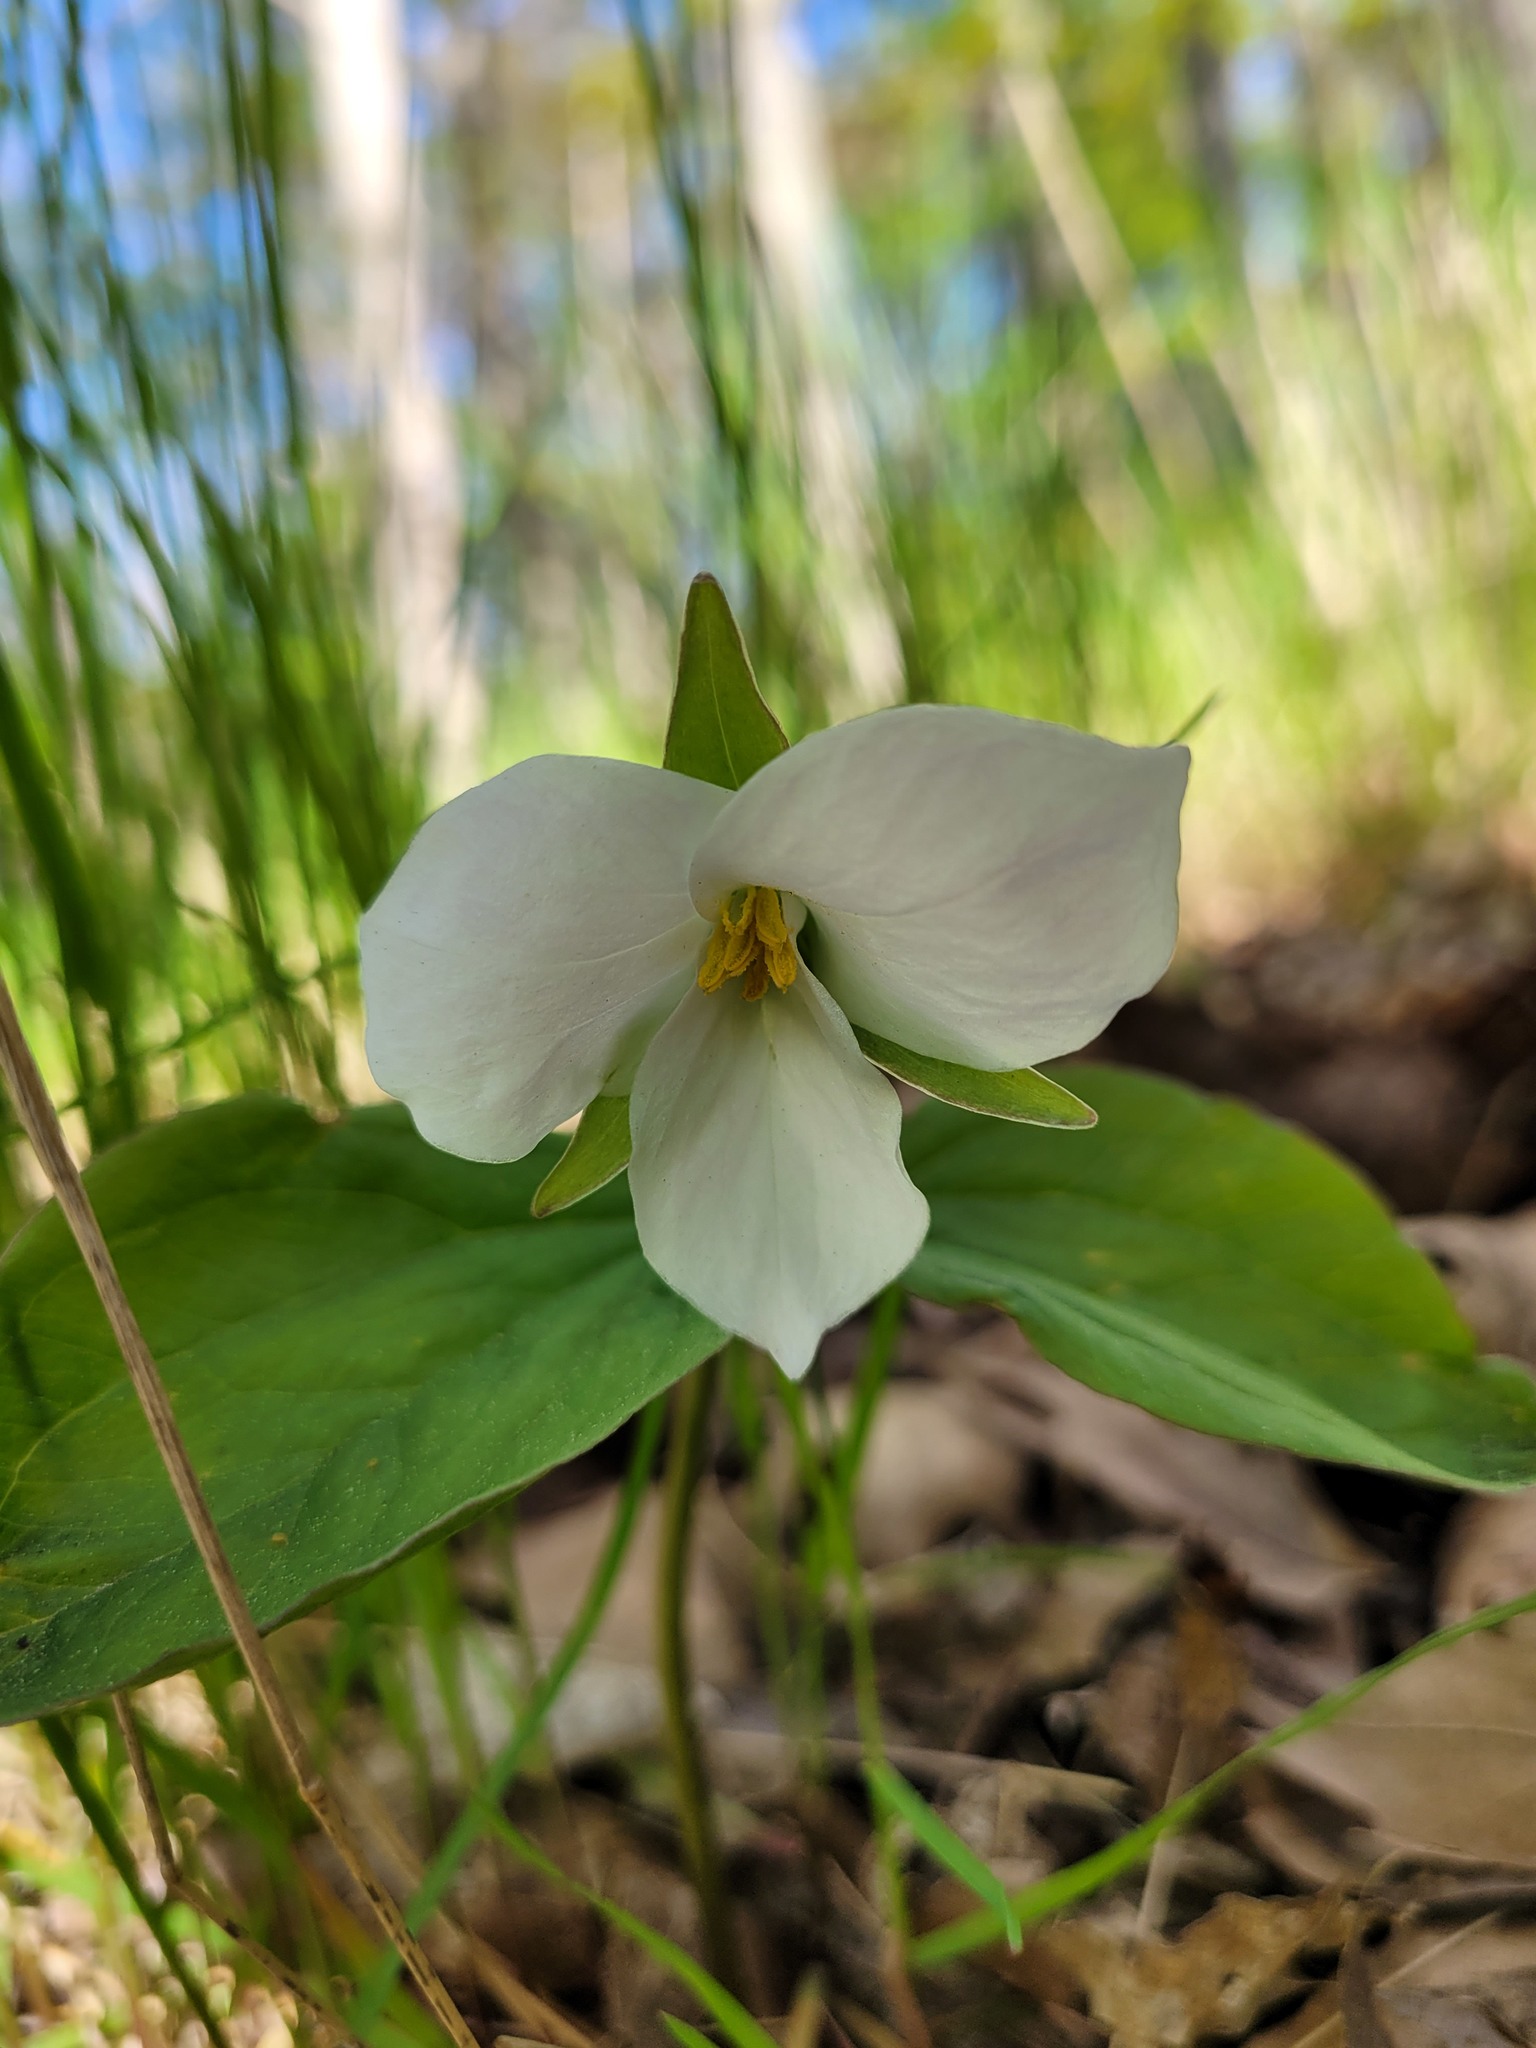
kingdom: Plantae
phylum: Tracheophyta
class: Liliopsida
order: Liliales
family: Melanthiaceae
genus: Trillium
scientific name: Trillium grandiflorum
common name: Great white trillium
